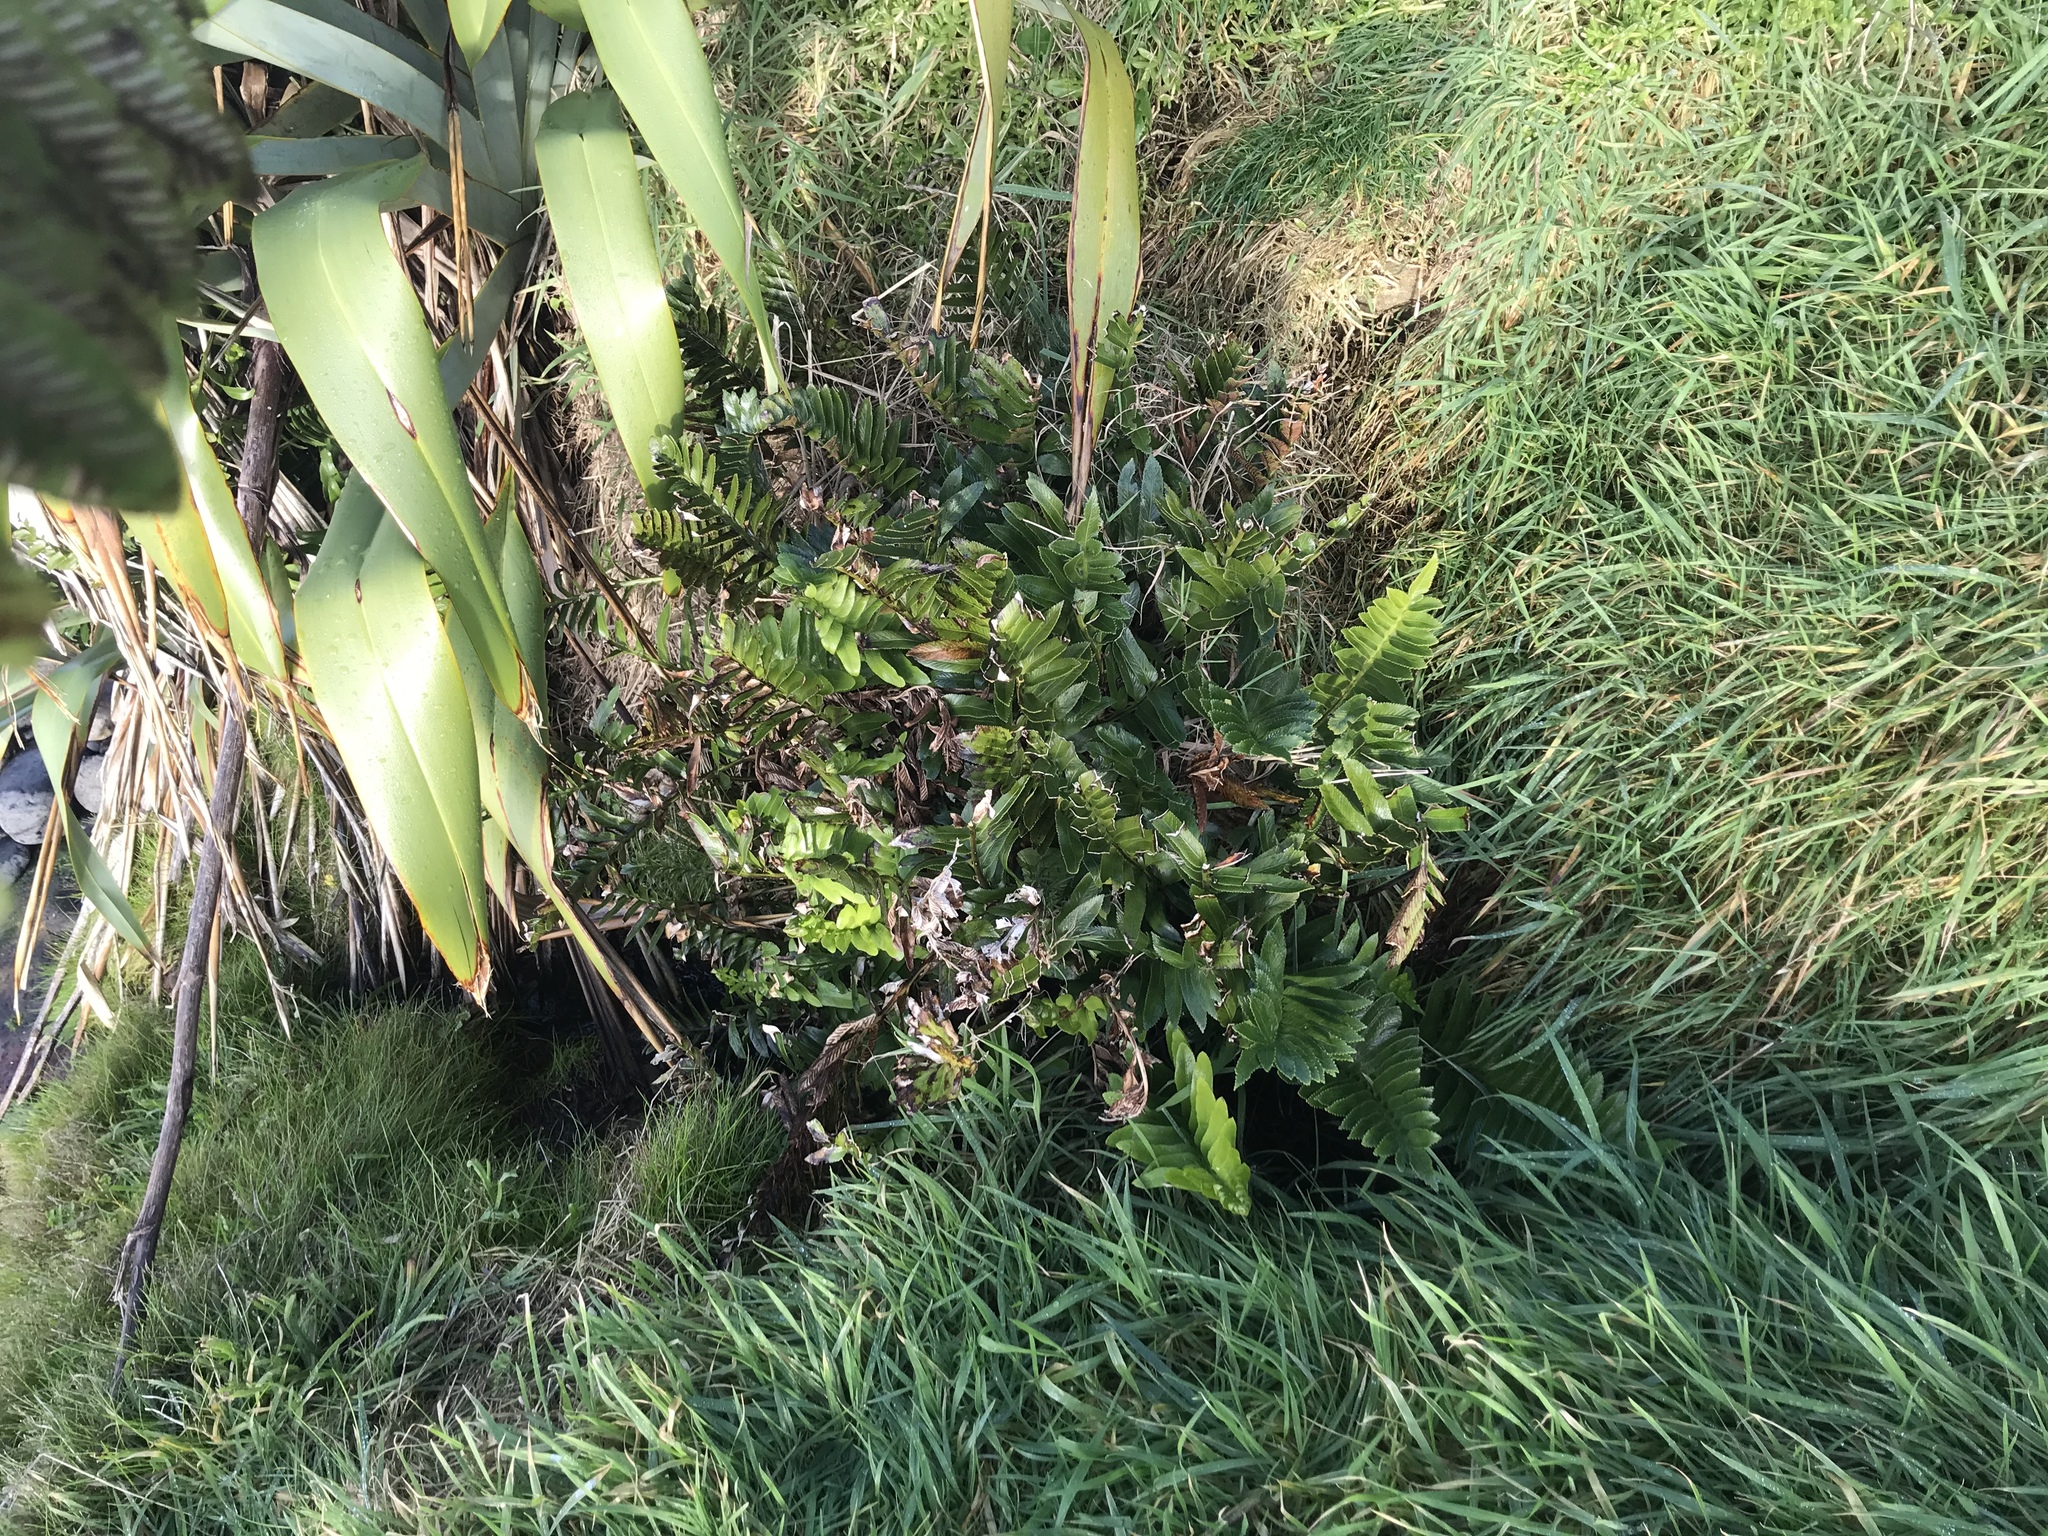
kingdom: Plantae
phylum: Tracheophyta
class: Polypodiopsida
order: Polypodiales
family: Aspleniaceae
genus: Asplenium
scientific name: Asplenium obtusatum
